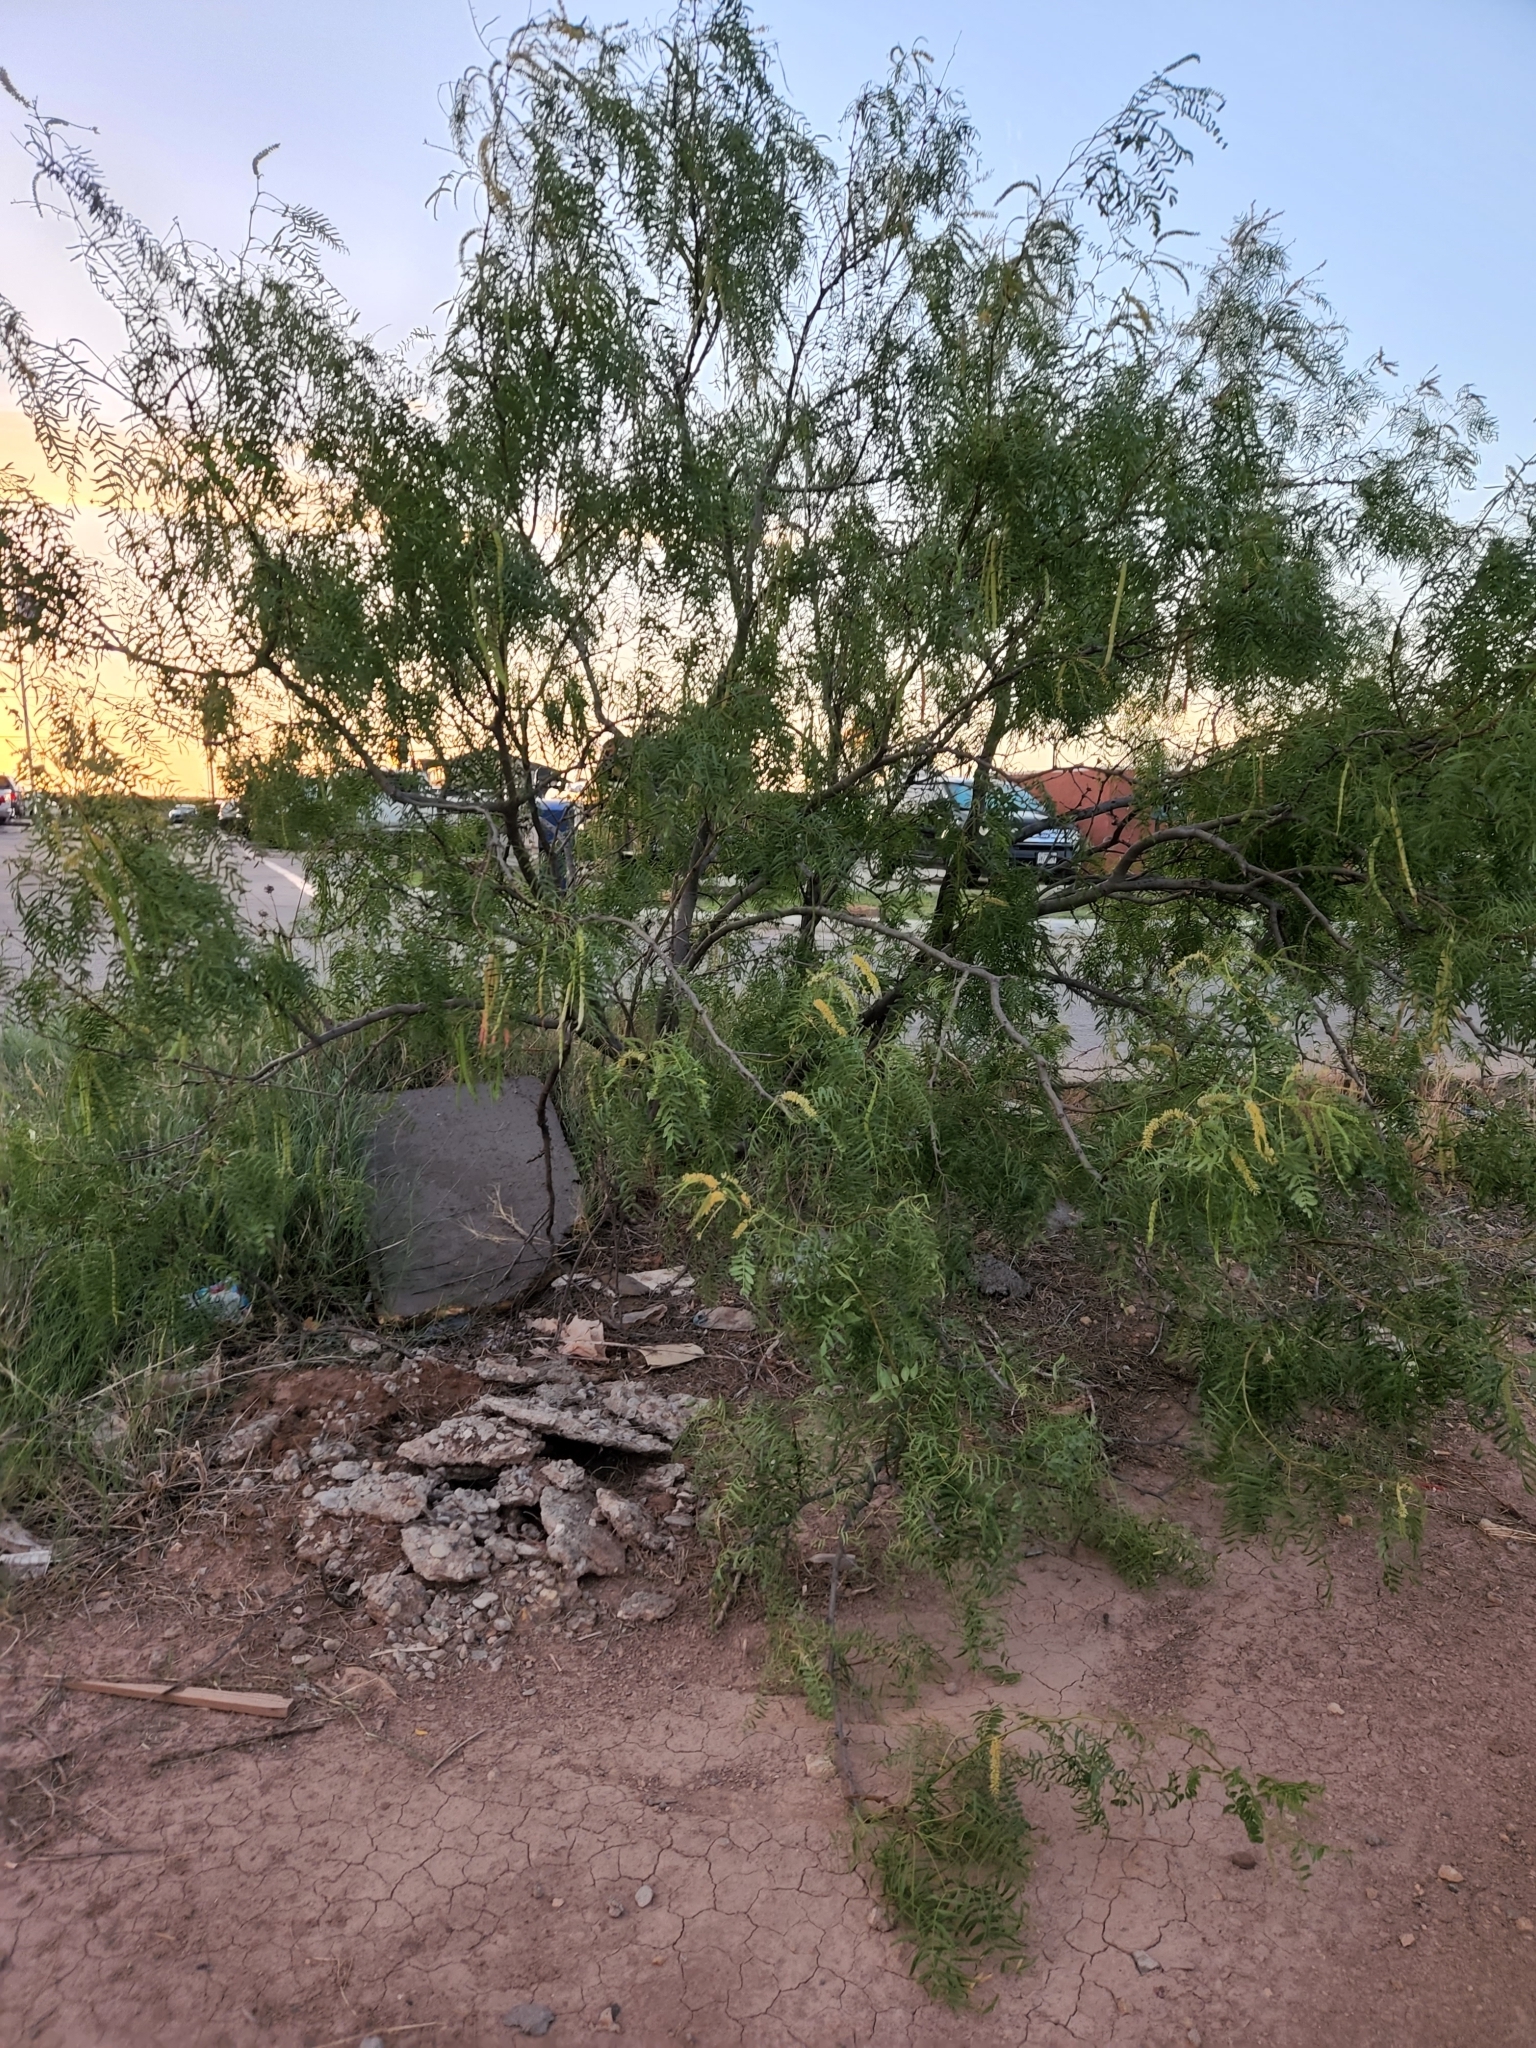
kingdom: Plantae
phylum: Tracheophyta
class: Magnoliopsida
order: Fabales
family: Fabaceae
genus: Prosopis
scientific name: Prosopis glandulosa
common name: Honey mesquite
